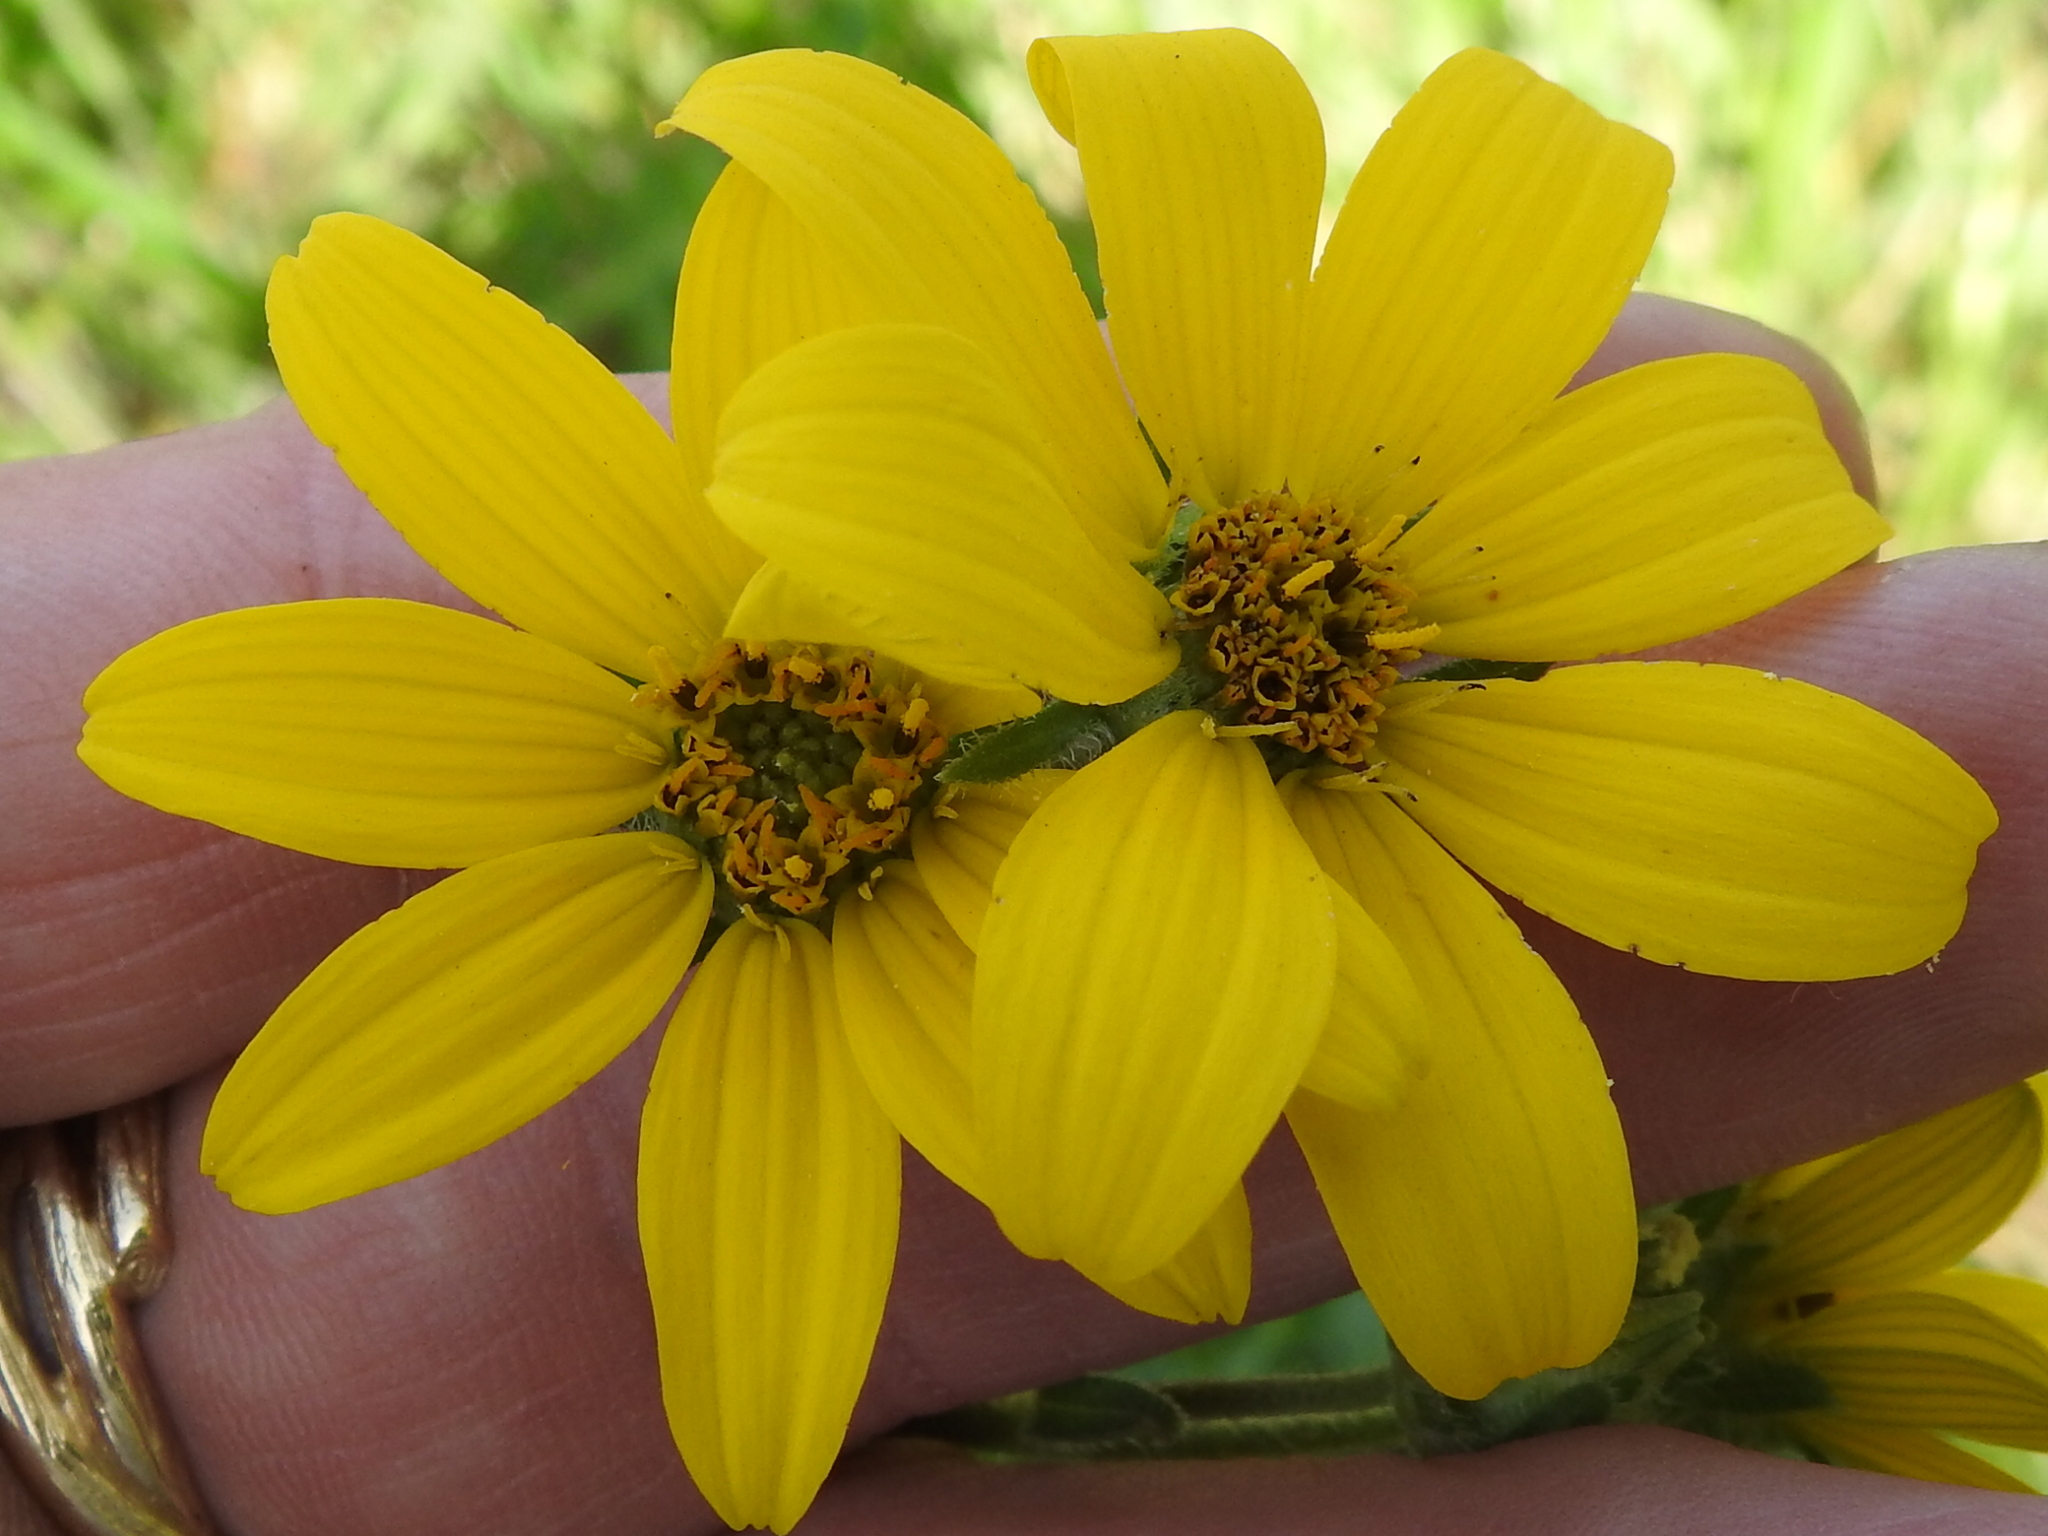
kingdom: Plantae
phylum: Tracheophyta
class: Magnoliopsida
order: Asterales
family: Asteraceae
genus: Engelmannia
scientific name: Engelmannia peristenia
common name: Engelmann's daisy
